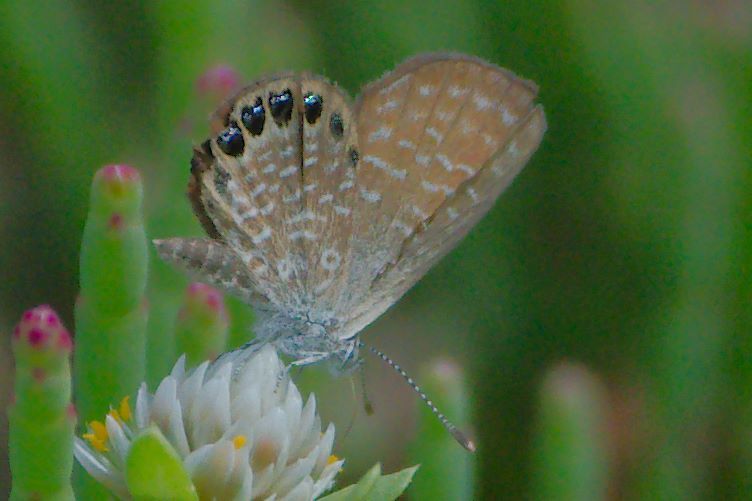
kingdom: Animalia
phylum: Arthropoda
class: Insecta
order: Lepidoptera
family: Lycaenidae
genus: Brephidium
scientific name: Brephidium isophthalma
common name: Eastern pygmy-blue
